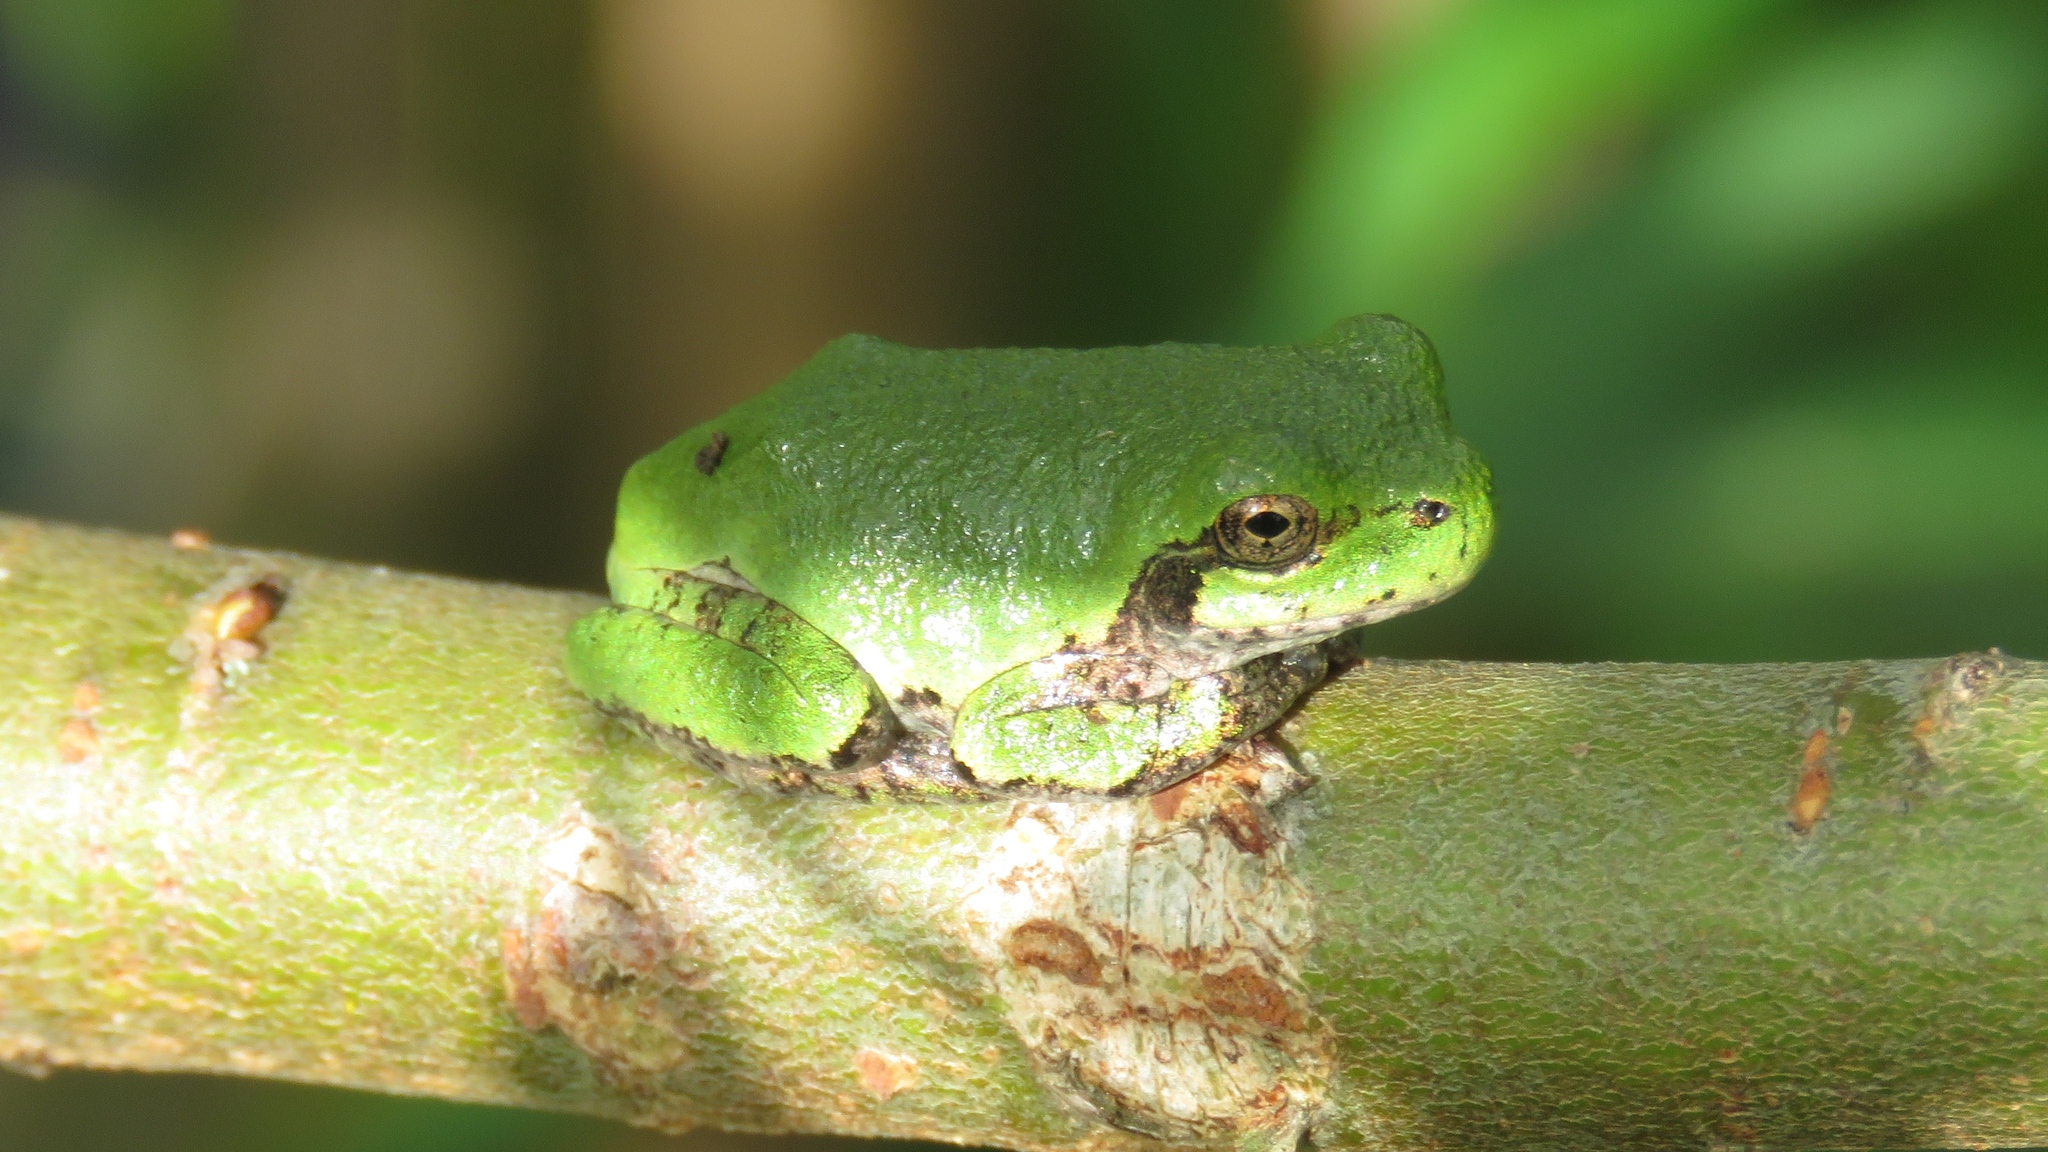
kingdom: Animalia
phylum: Chordata
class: Amphibia
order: Anura
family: Hylidae
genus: Dryophytes
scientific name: Dryophytes versicolor
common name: Gray treefrog
